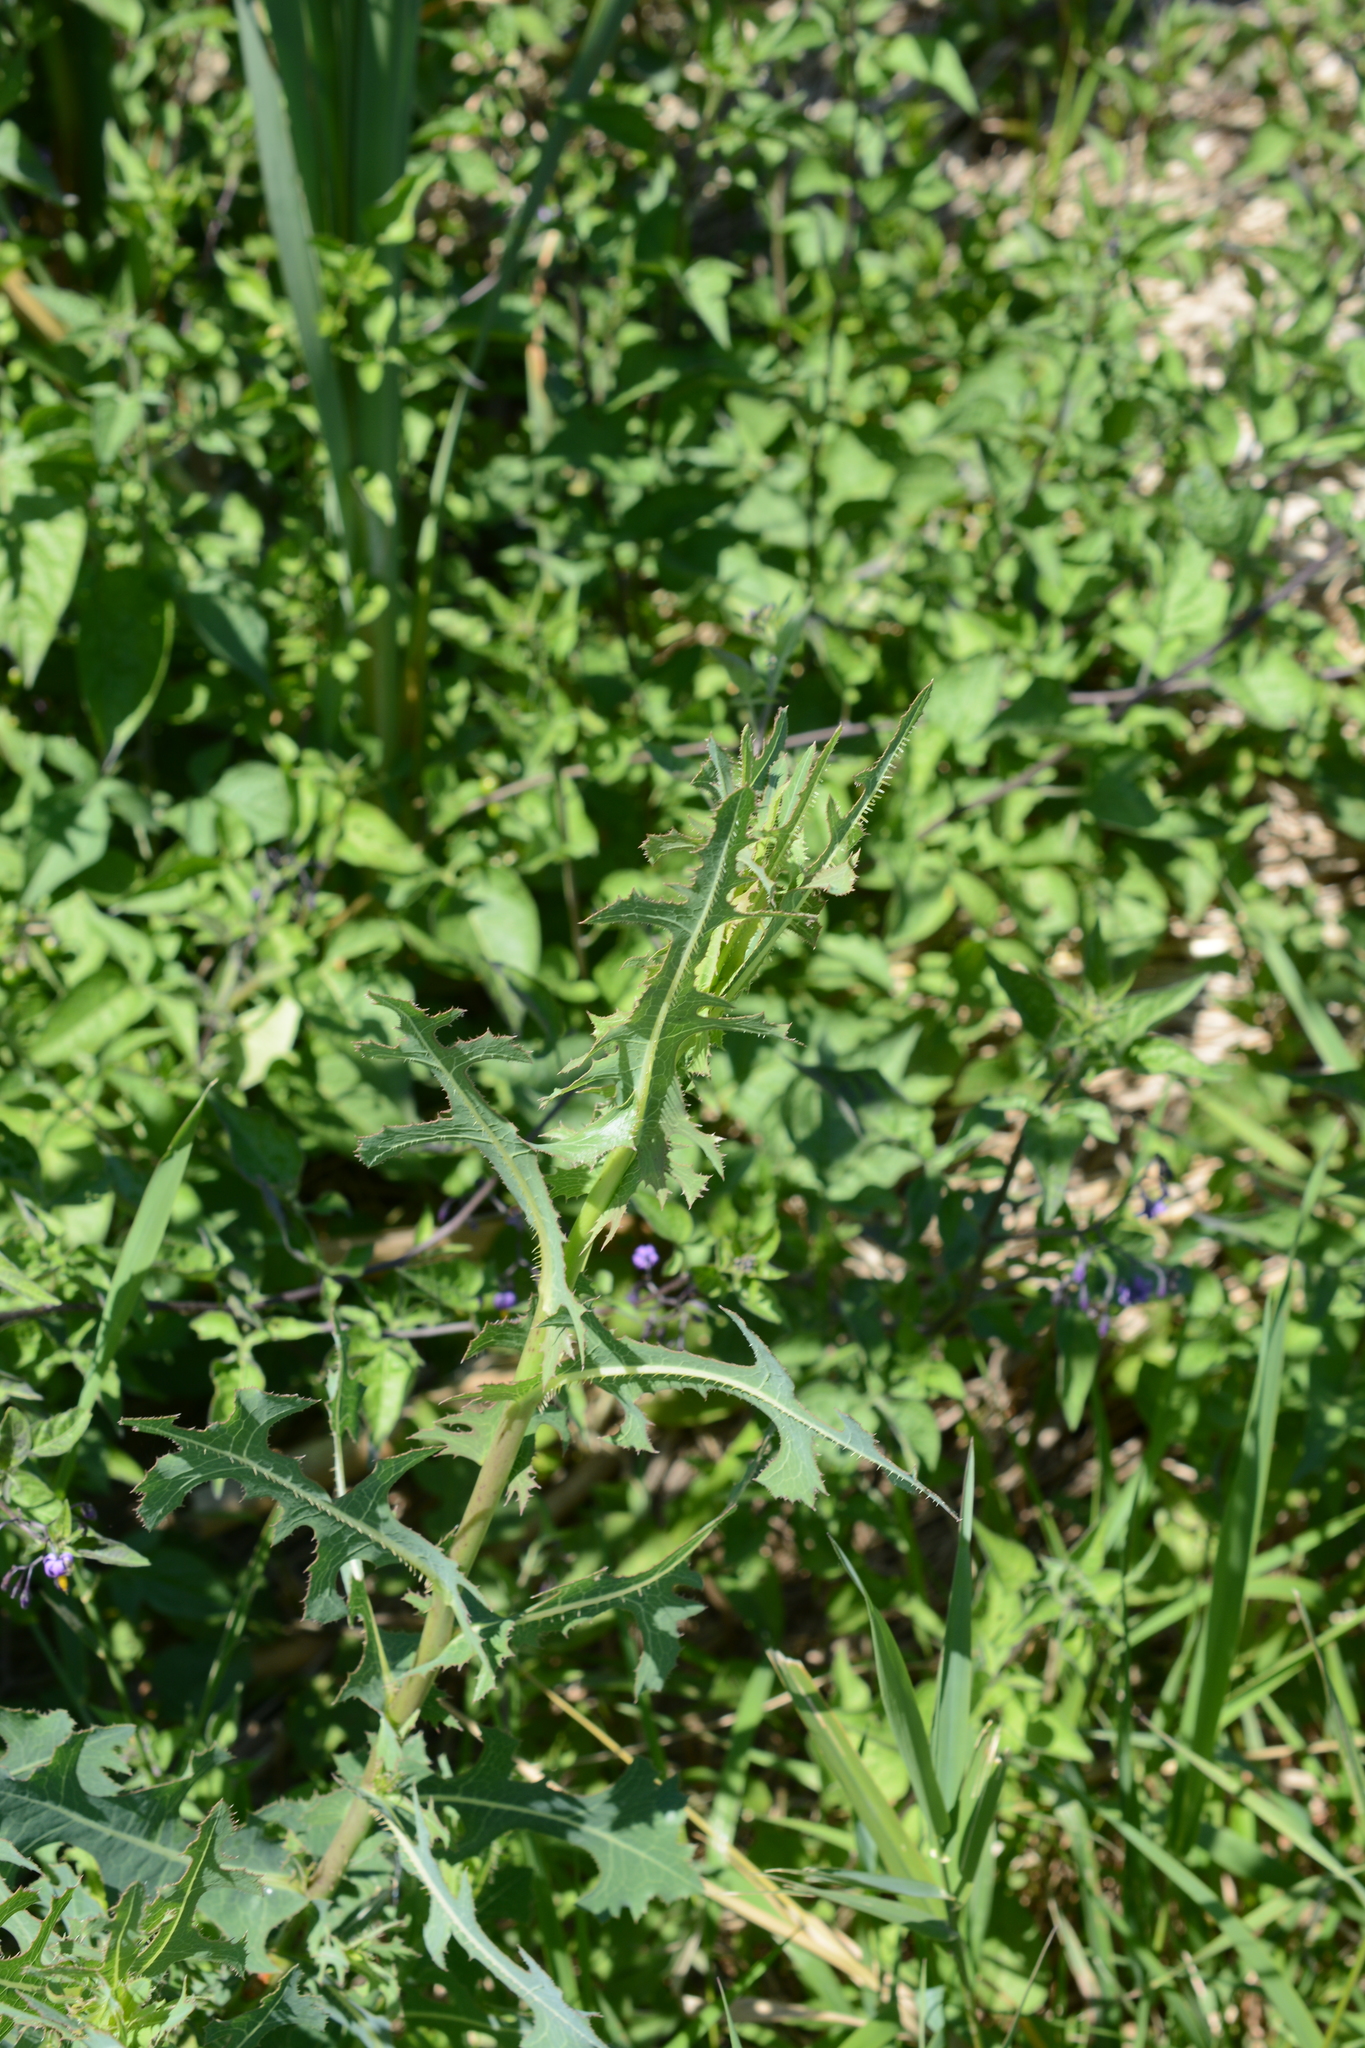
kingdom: Plantae
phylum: Tracheophyta
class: Magnoliopsida
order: Asterales
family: Asteraceae
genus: Lactuca
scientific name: Lactuca serriola
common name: Prickly lettuce
